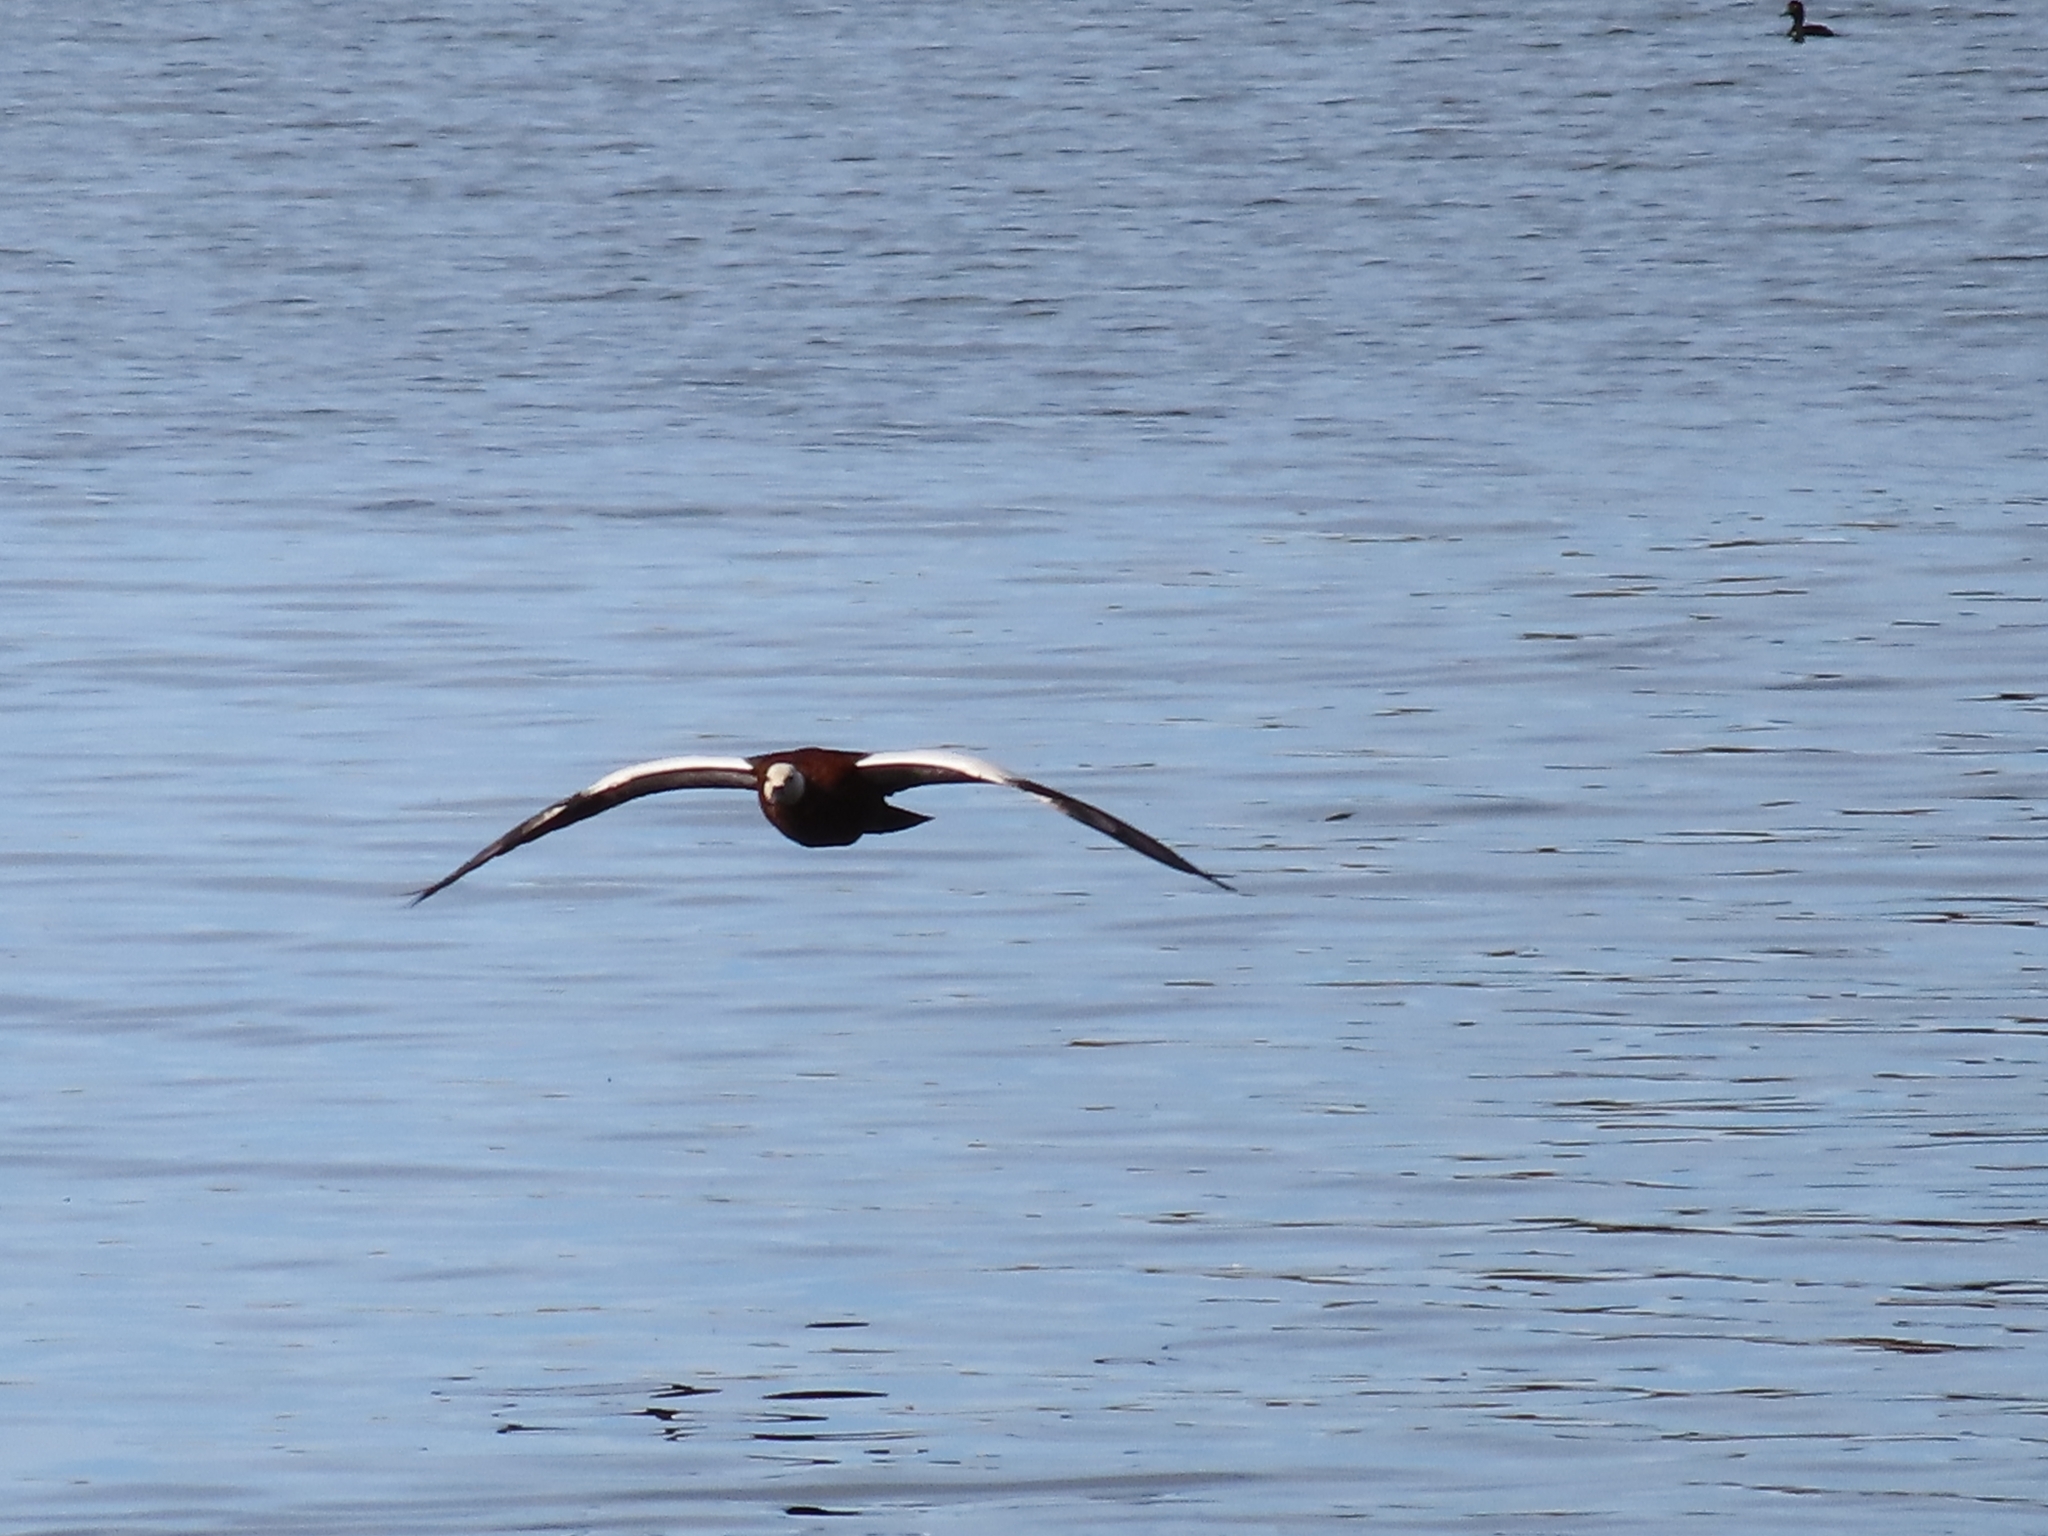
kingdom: Animalia
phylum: Chordata
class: Aves
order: Anseriformes
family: Anatidae
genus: Tadorna
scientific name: Tadorna variegata
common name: Paradise shelduck
